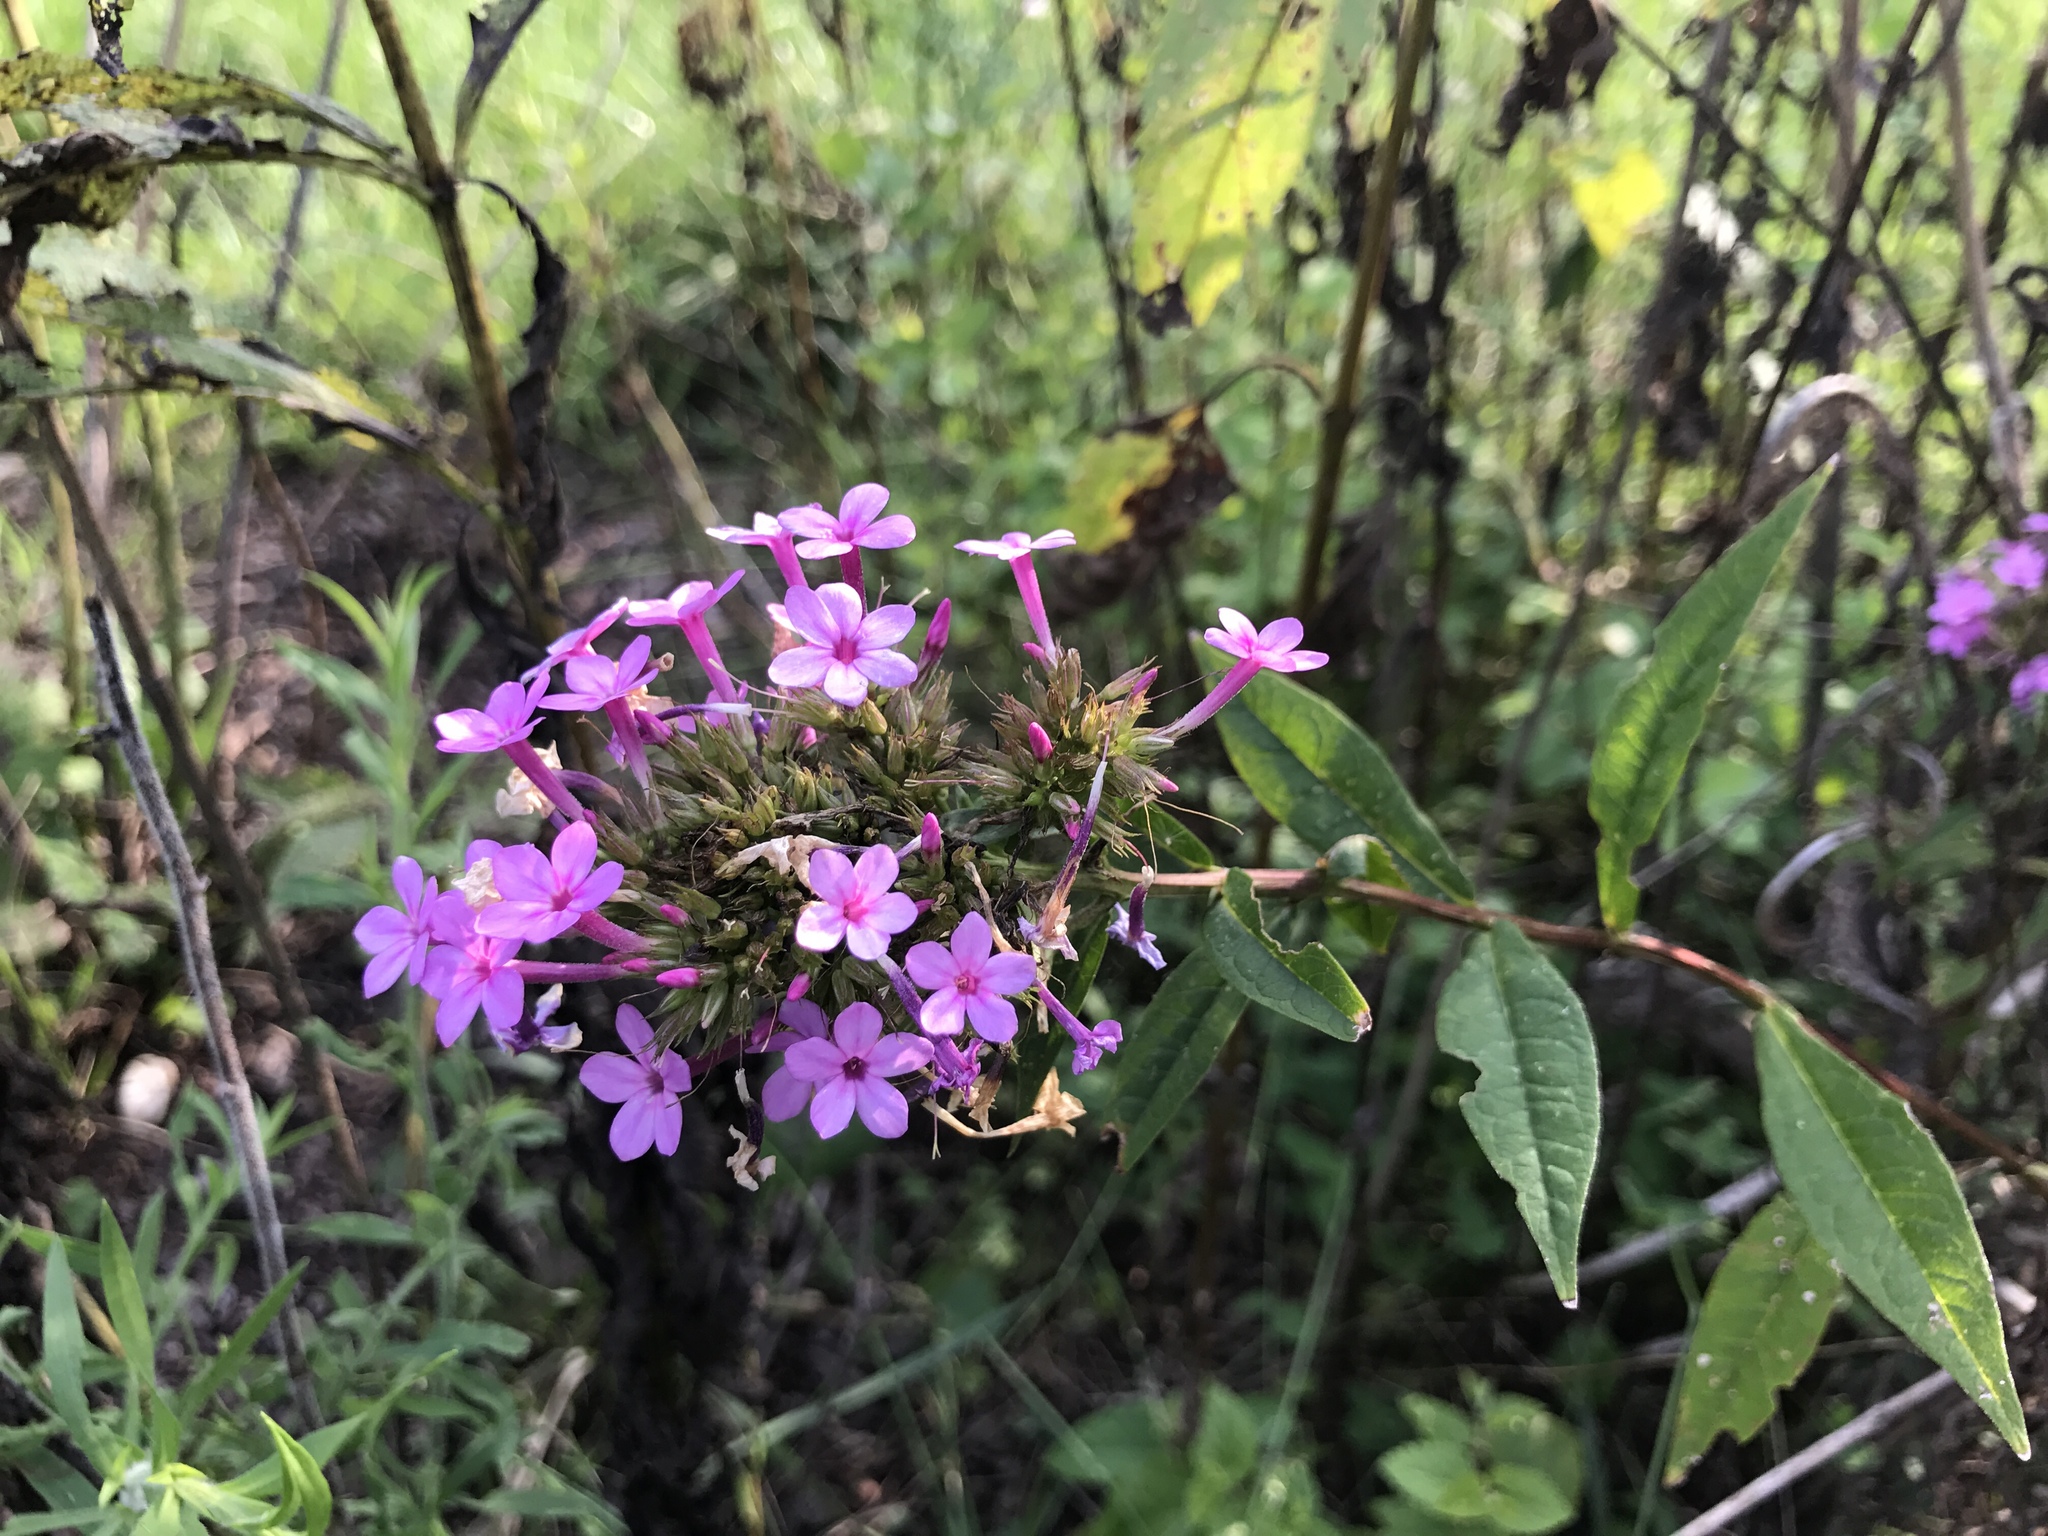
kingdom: Plantae
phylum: Tracheophyta
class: Magnoliopsida
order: Ericales
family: Polemoniaceae
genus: Phlox
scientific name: Phlox paniculata
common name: Fall phlox
